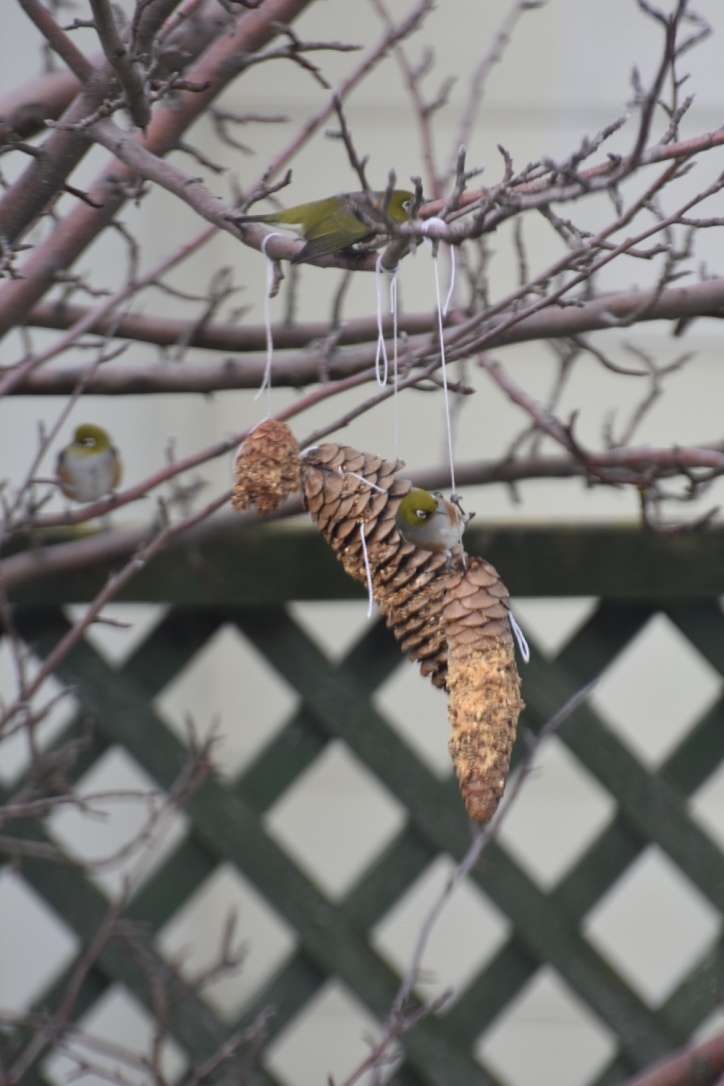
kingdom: Animalia
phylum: Chordata
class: Aves
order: Passeriformes
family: Zosteropidae
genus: Zosterops
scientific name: Zosterops lateralis
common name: Silvereye
